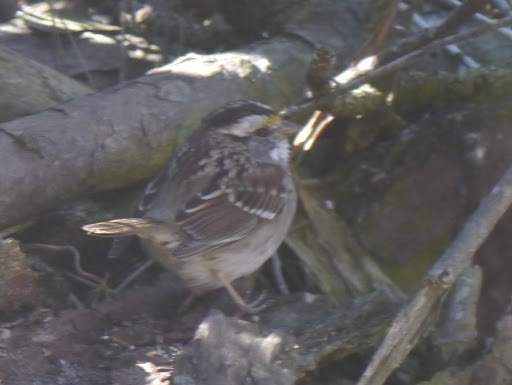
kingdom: Animalia
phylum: Chordata
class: Aves
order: Passeriformes
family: Passerellidae
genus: Zonotrichia
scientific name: Zonotrichia albicollis
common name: White-throated sparrow
